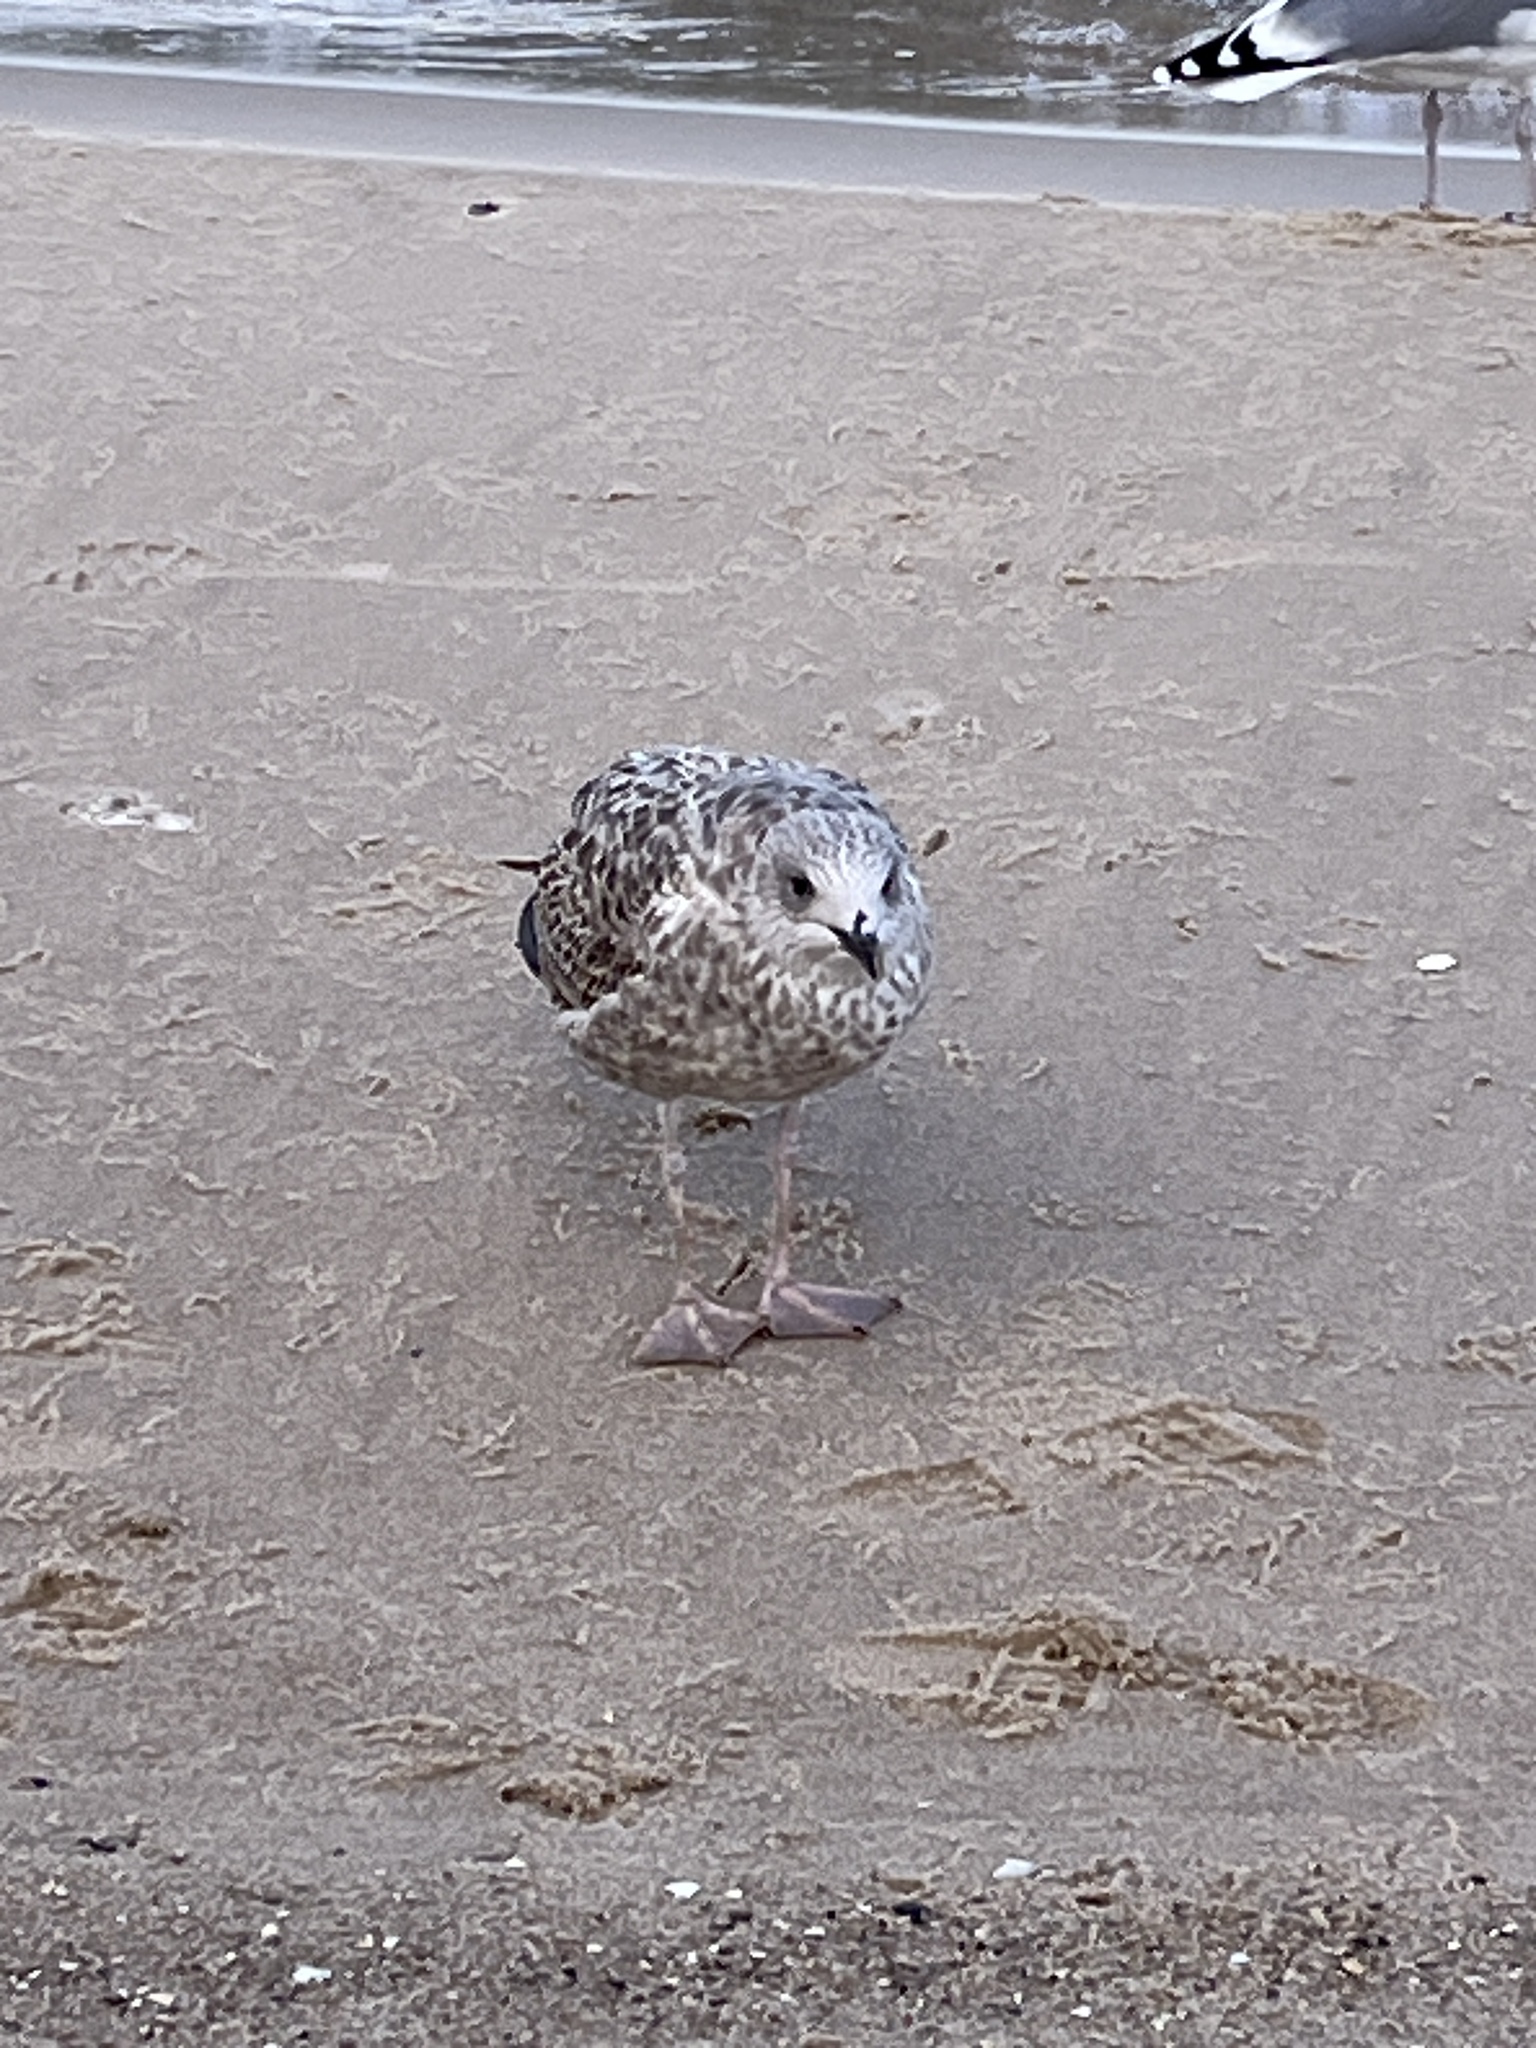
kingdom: Animalia
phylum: Chordata
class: Aves
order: Charadriiformes
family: Laridae
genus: Larus
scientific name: Larus argentatus
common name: Herring gull
